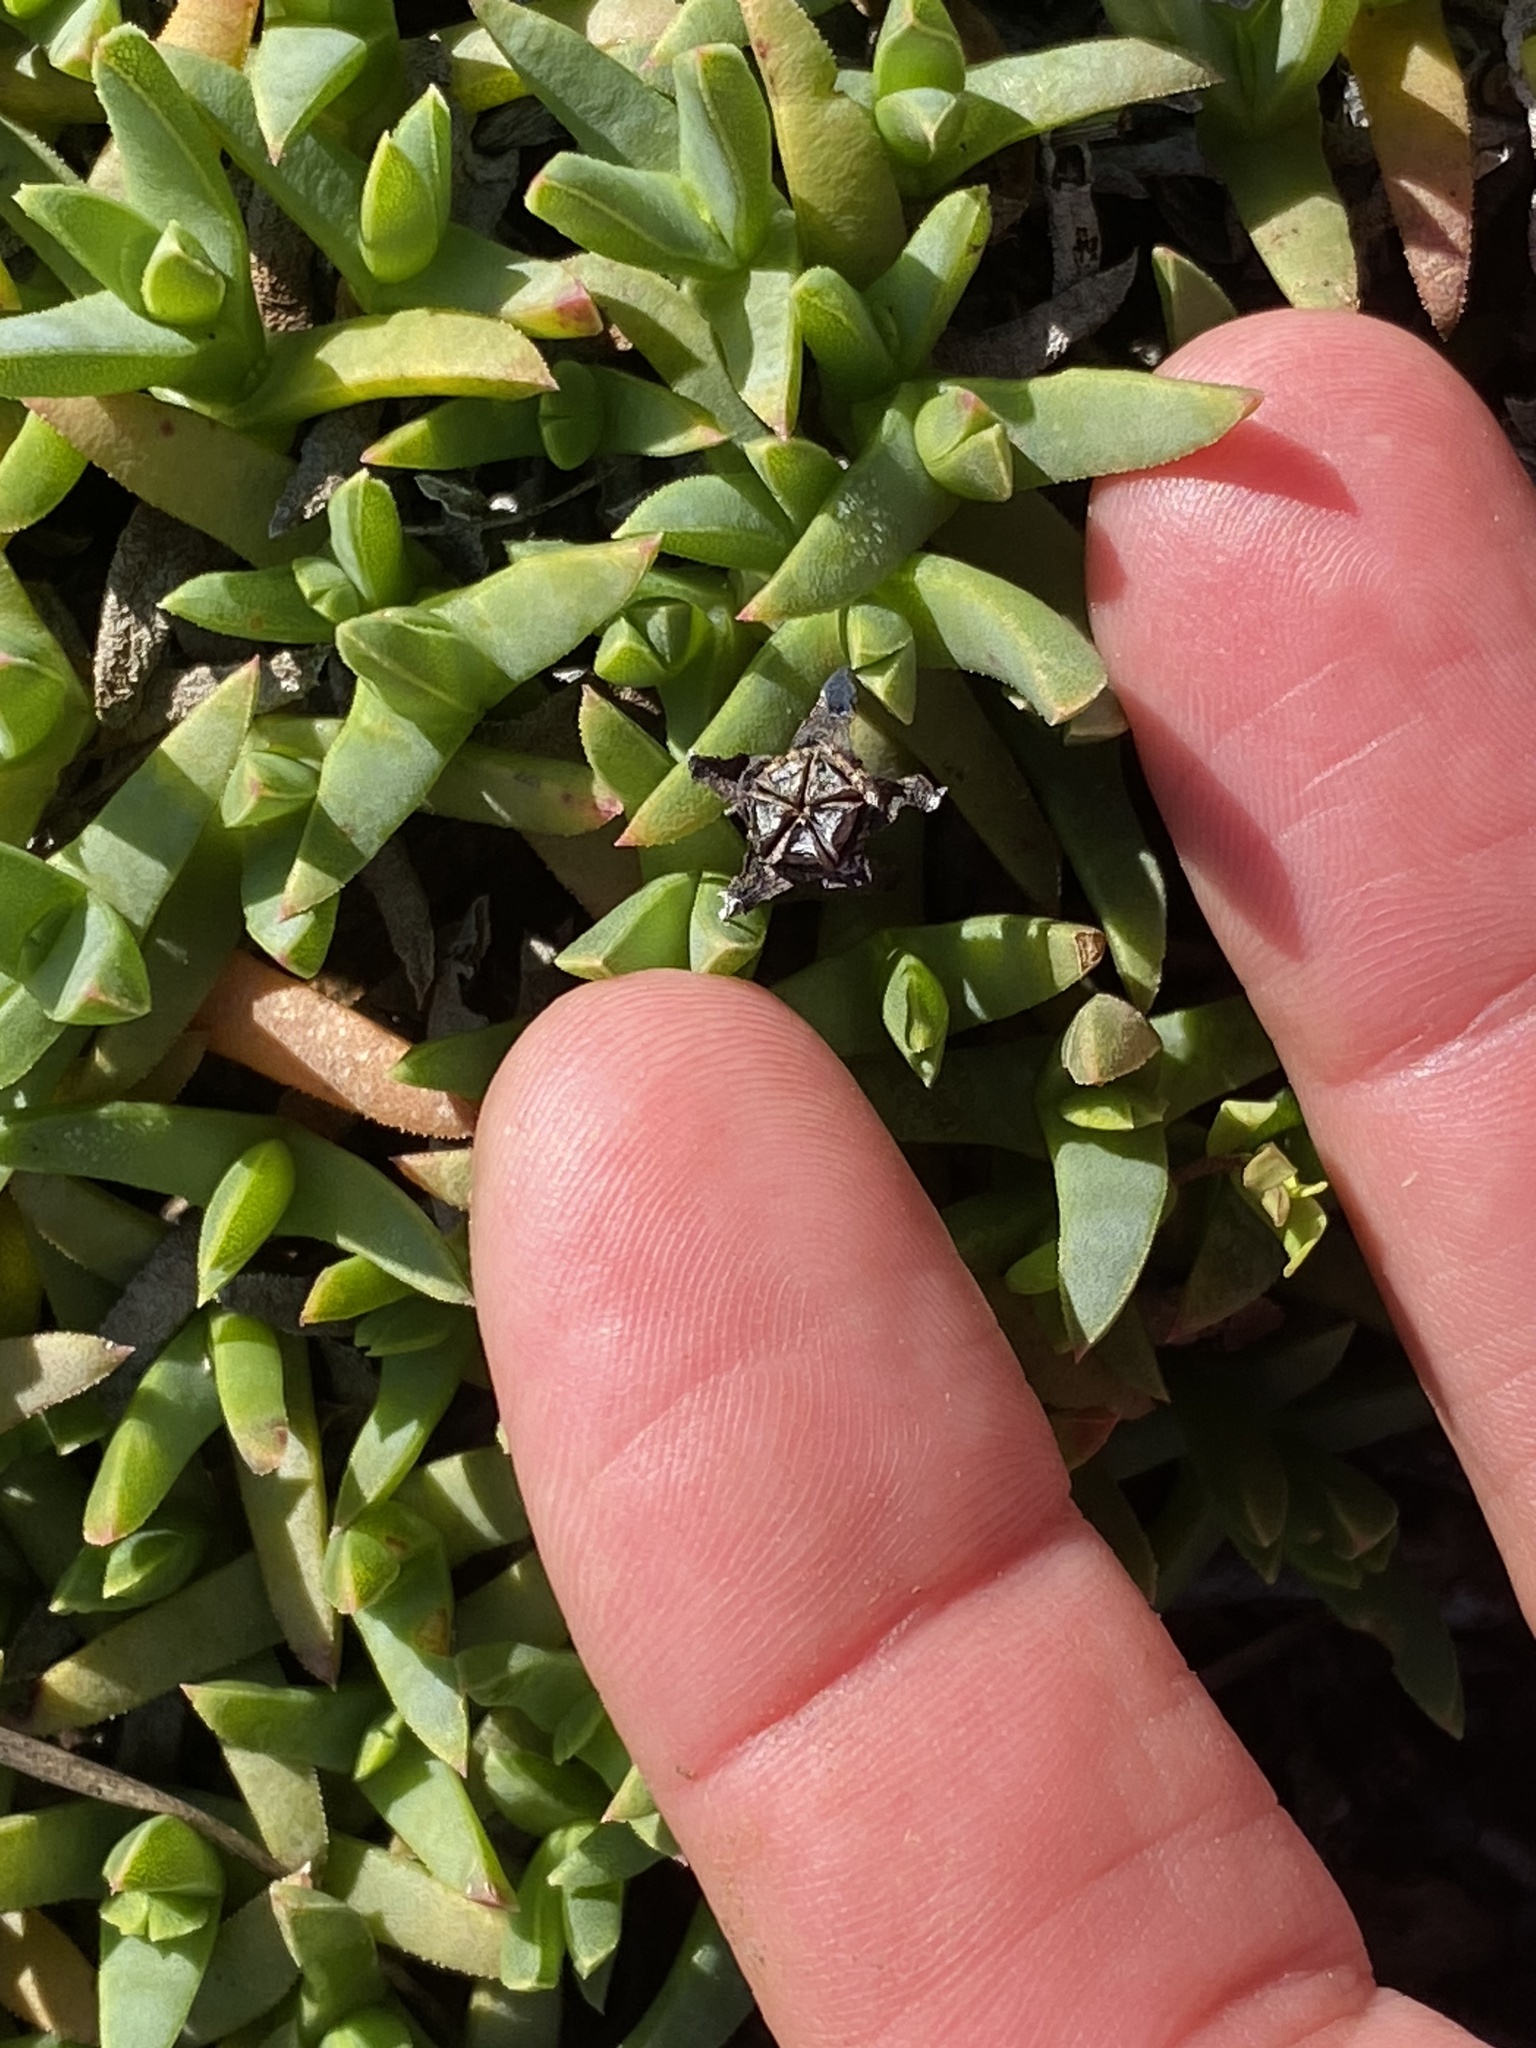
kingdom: Plantae
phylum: Tracheophyta
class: Magnoliopsida
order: Caryophyllales
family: Aizoaceae
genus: Ruschia
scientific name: Ruschia lineolata
